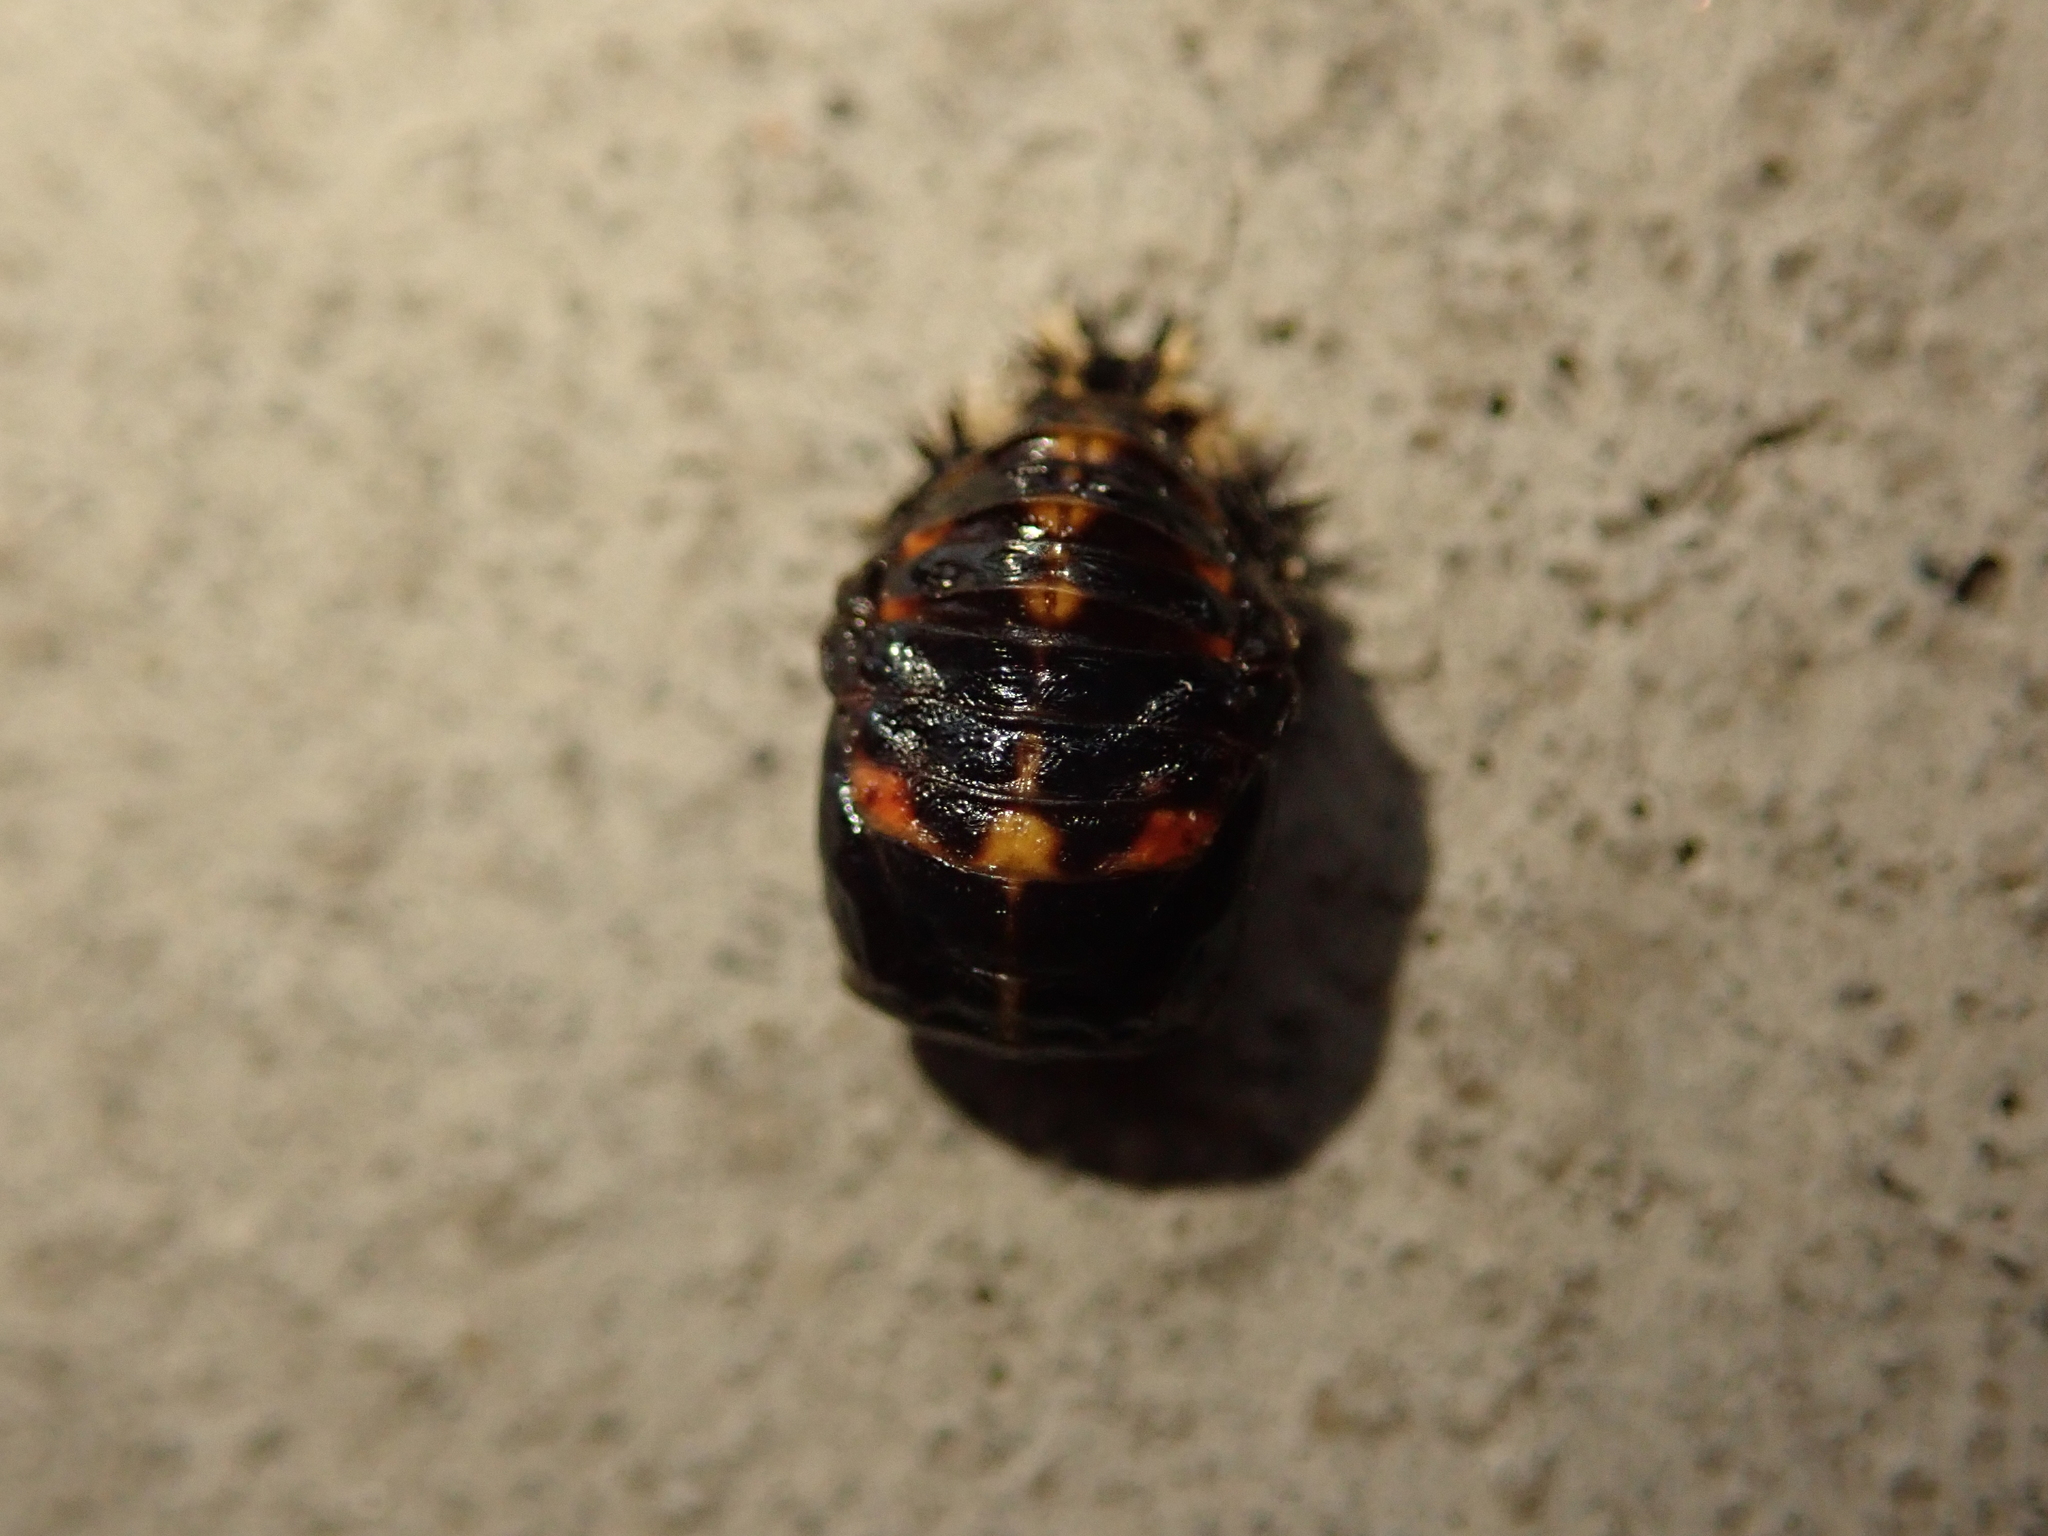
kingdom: Animalia
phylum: Arthropoda
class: Insecta
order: Coleoptera
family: Coccinellidae
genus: Harmonia
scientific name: Harmonia axyridis
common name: Harlequin ladybird
